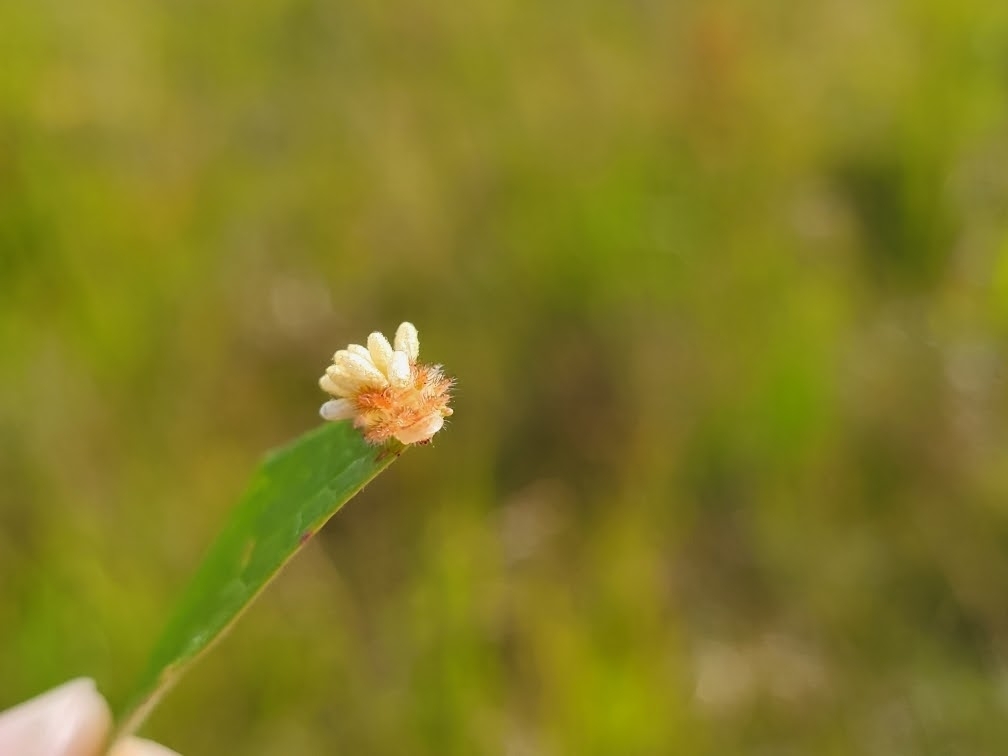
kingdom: Animalia
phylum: Arthropoda
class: Insecta
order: Lepidoptera
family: Limacodidae
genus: Euclea
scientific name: Euclea delphinii
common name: Spiny oak-slug moth
